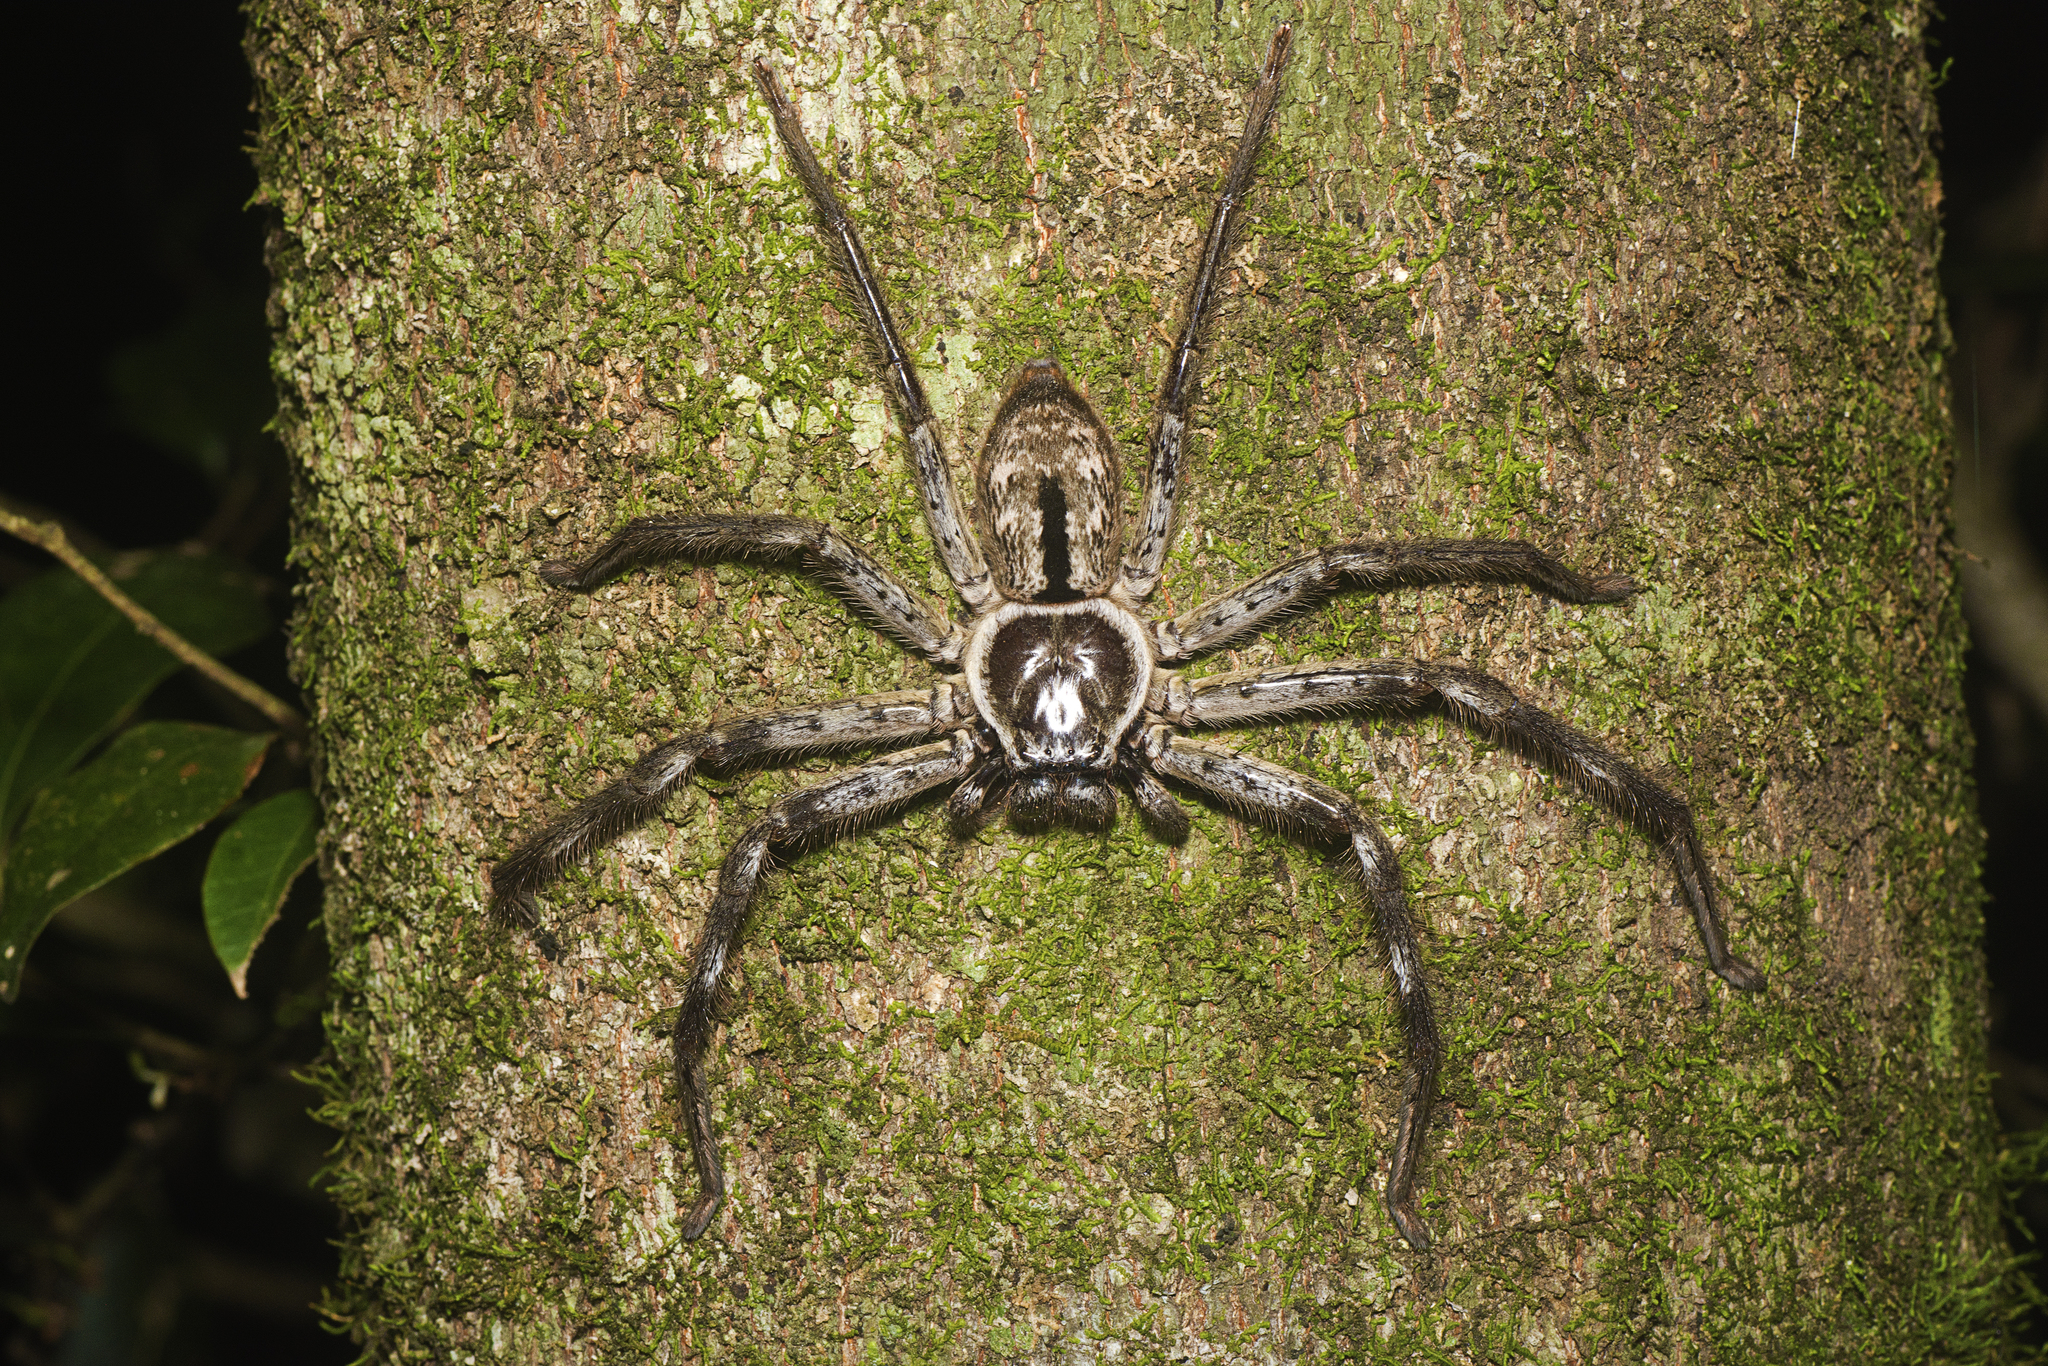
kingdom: Animalia
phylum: Arthropoda
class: Arachnida
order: Araneae
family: Sparassidae
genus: Holconia
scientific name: Holconia immanis
